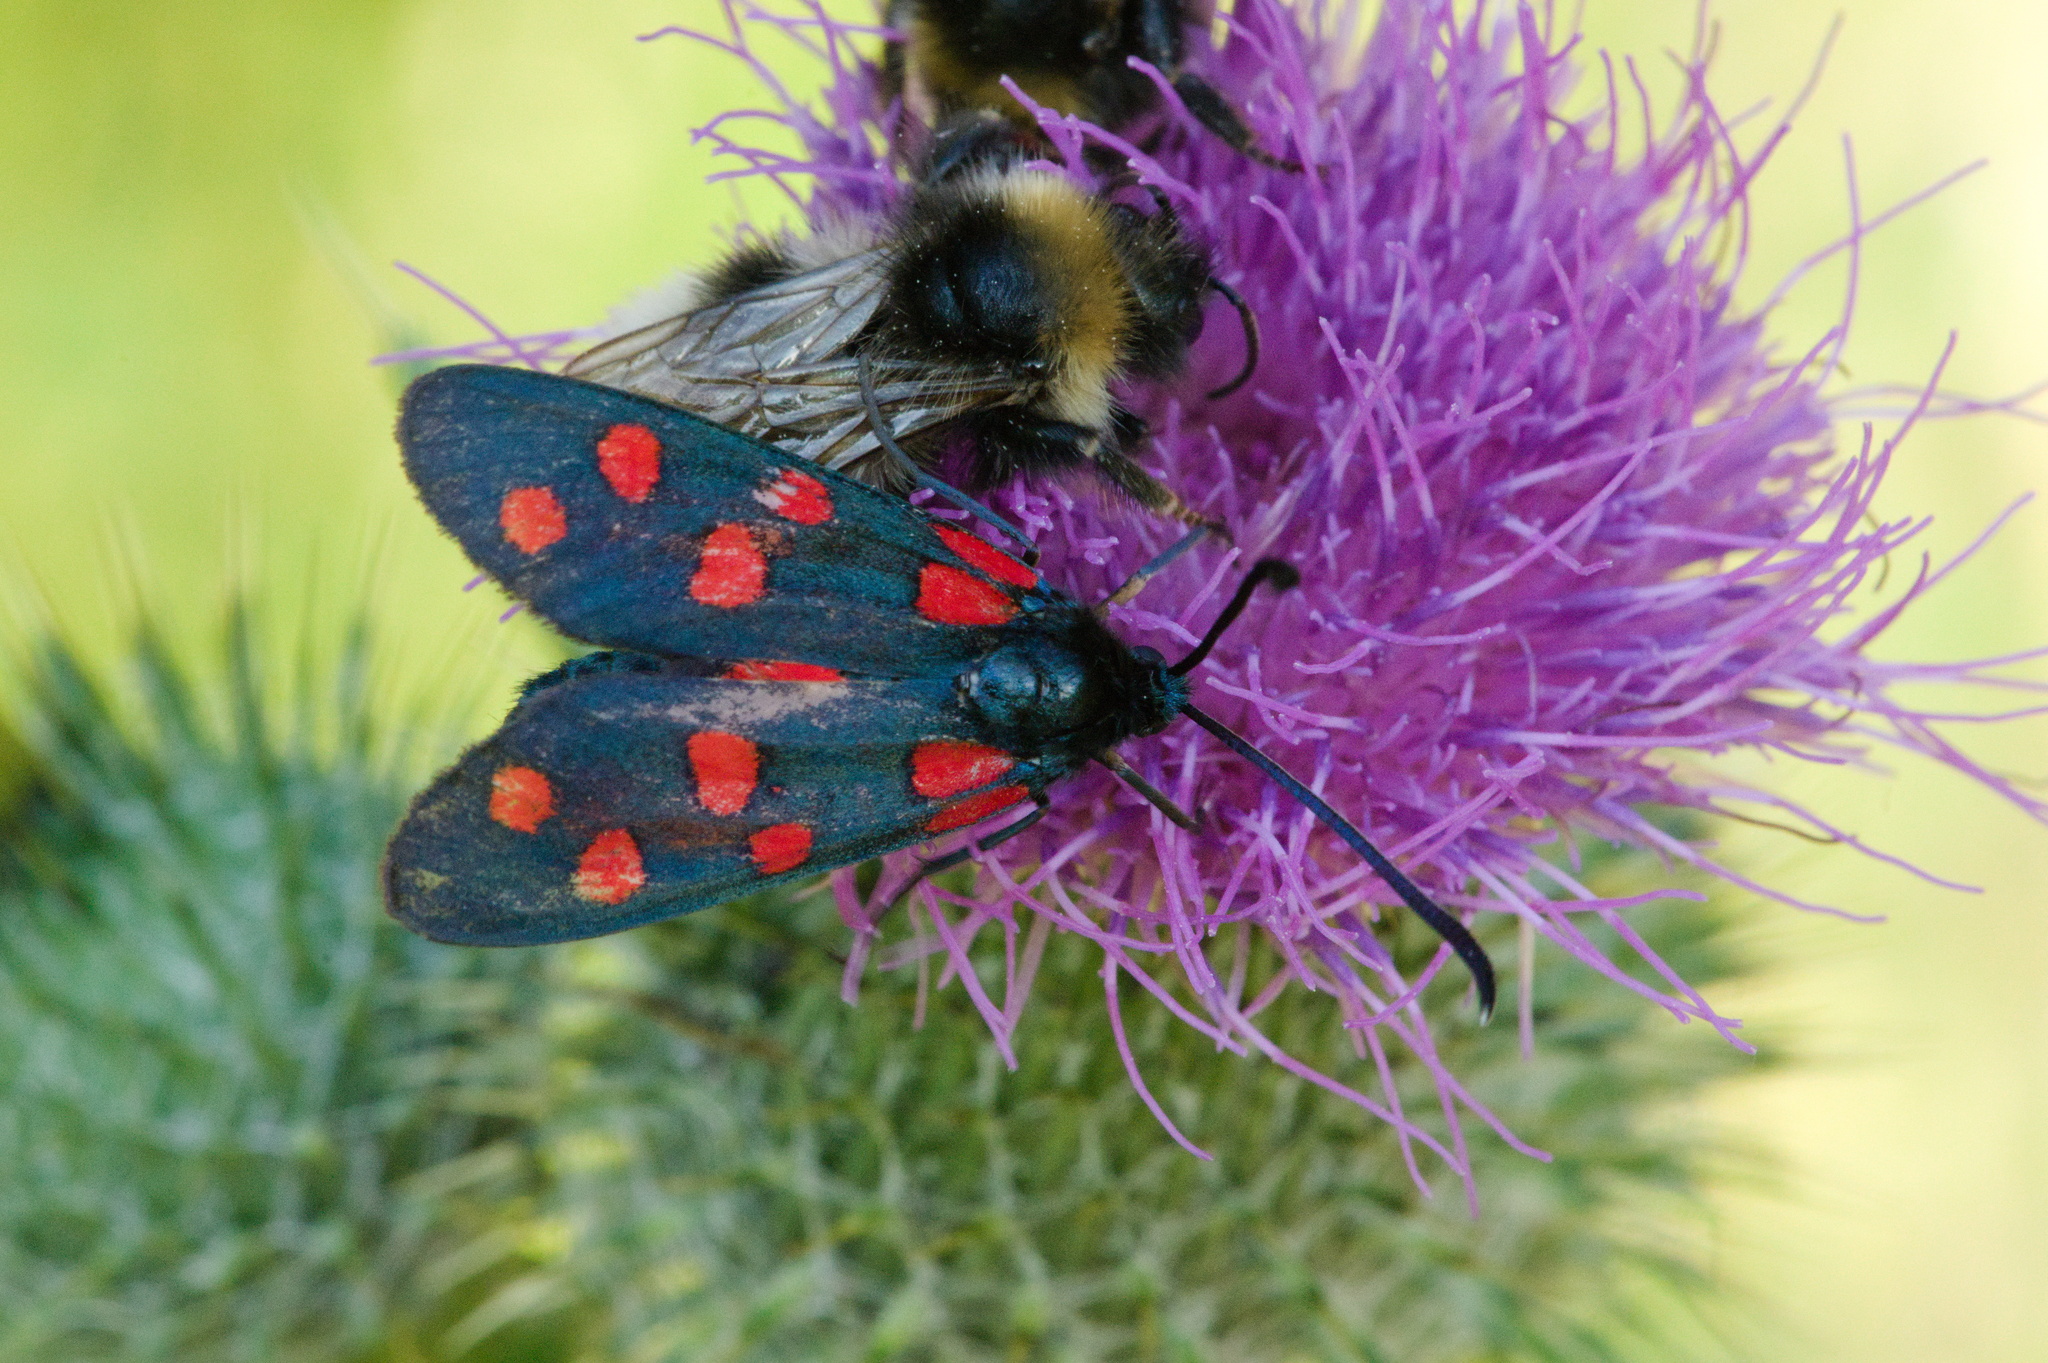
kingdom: Animalia
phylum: Arthropoda
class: Insecta
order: Lepidoptera
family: Zygaenidae
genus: Zygaena
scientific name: Zygaena transalpina
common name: Southern six spot burnet
